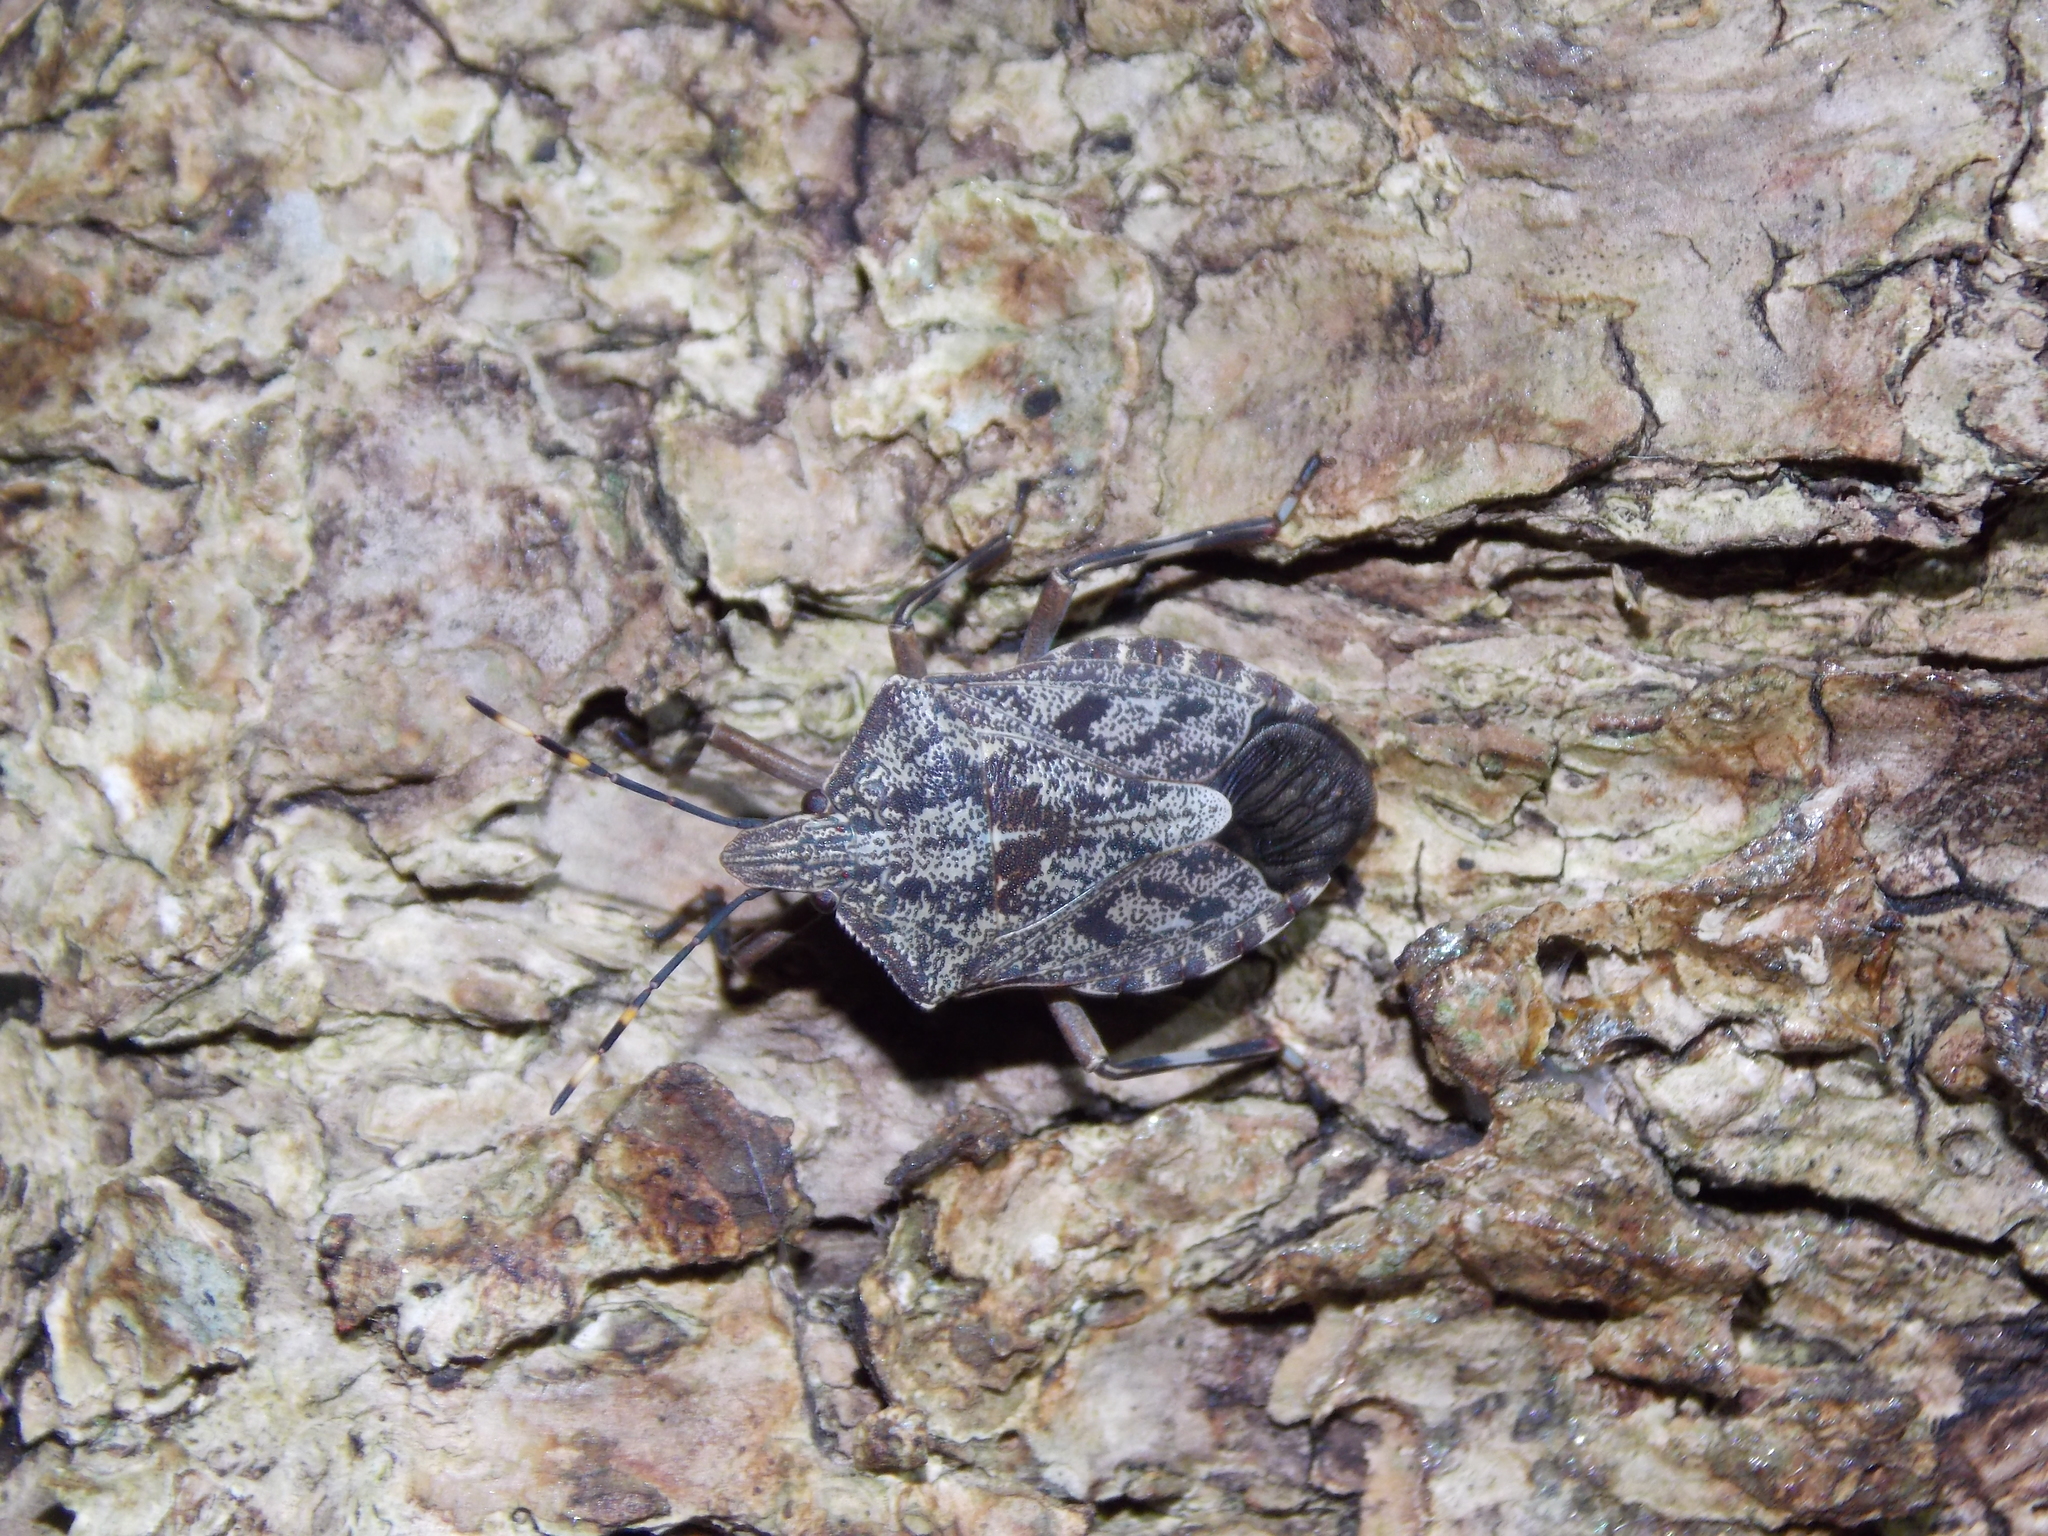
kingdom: Animalia
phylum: Arthropoda
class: Insecta
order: Hemiptera
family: Pentatomidae
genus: Coenomorpha
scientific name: Coenomorpha nervosa
